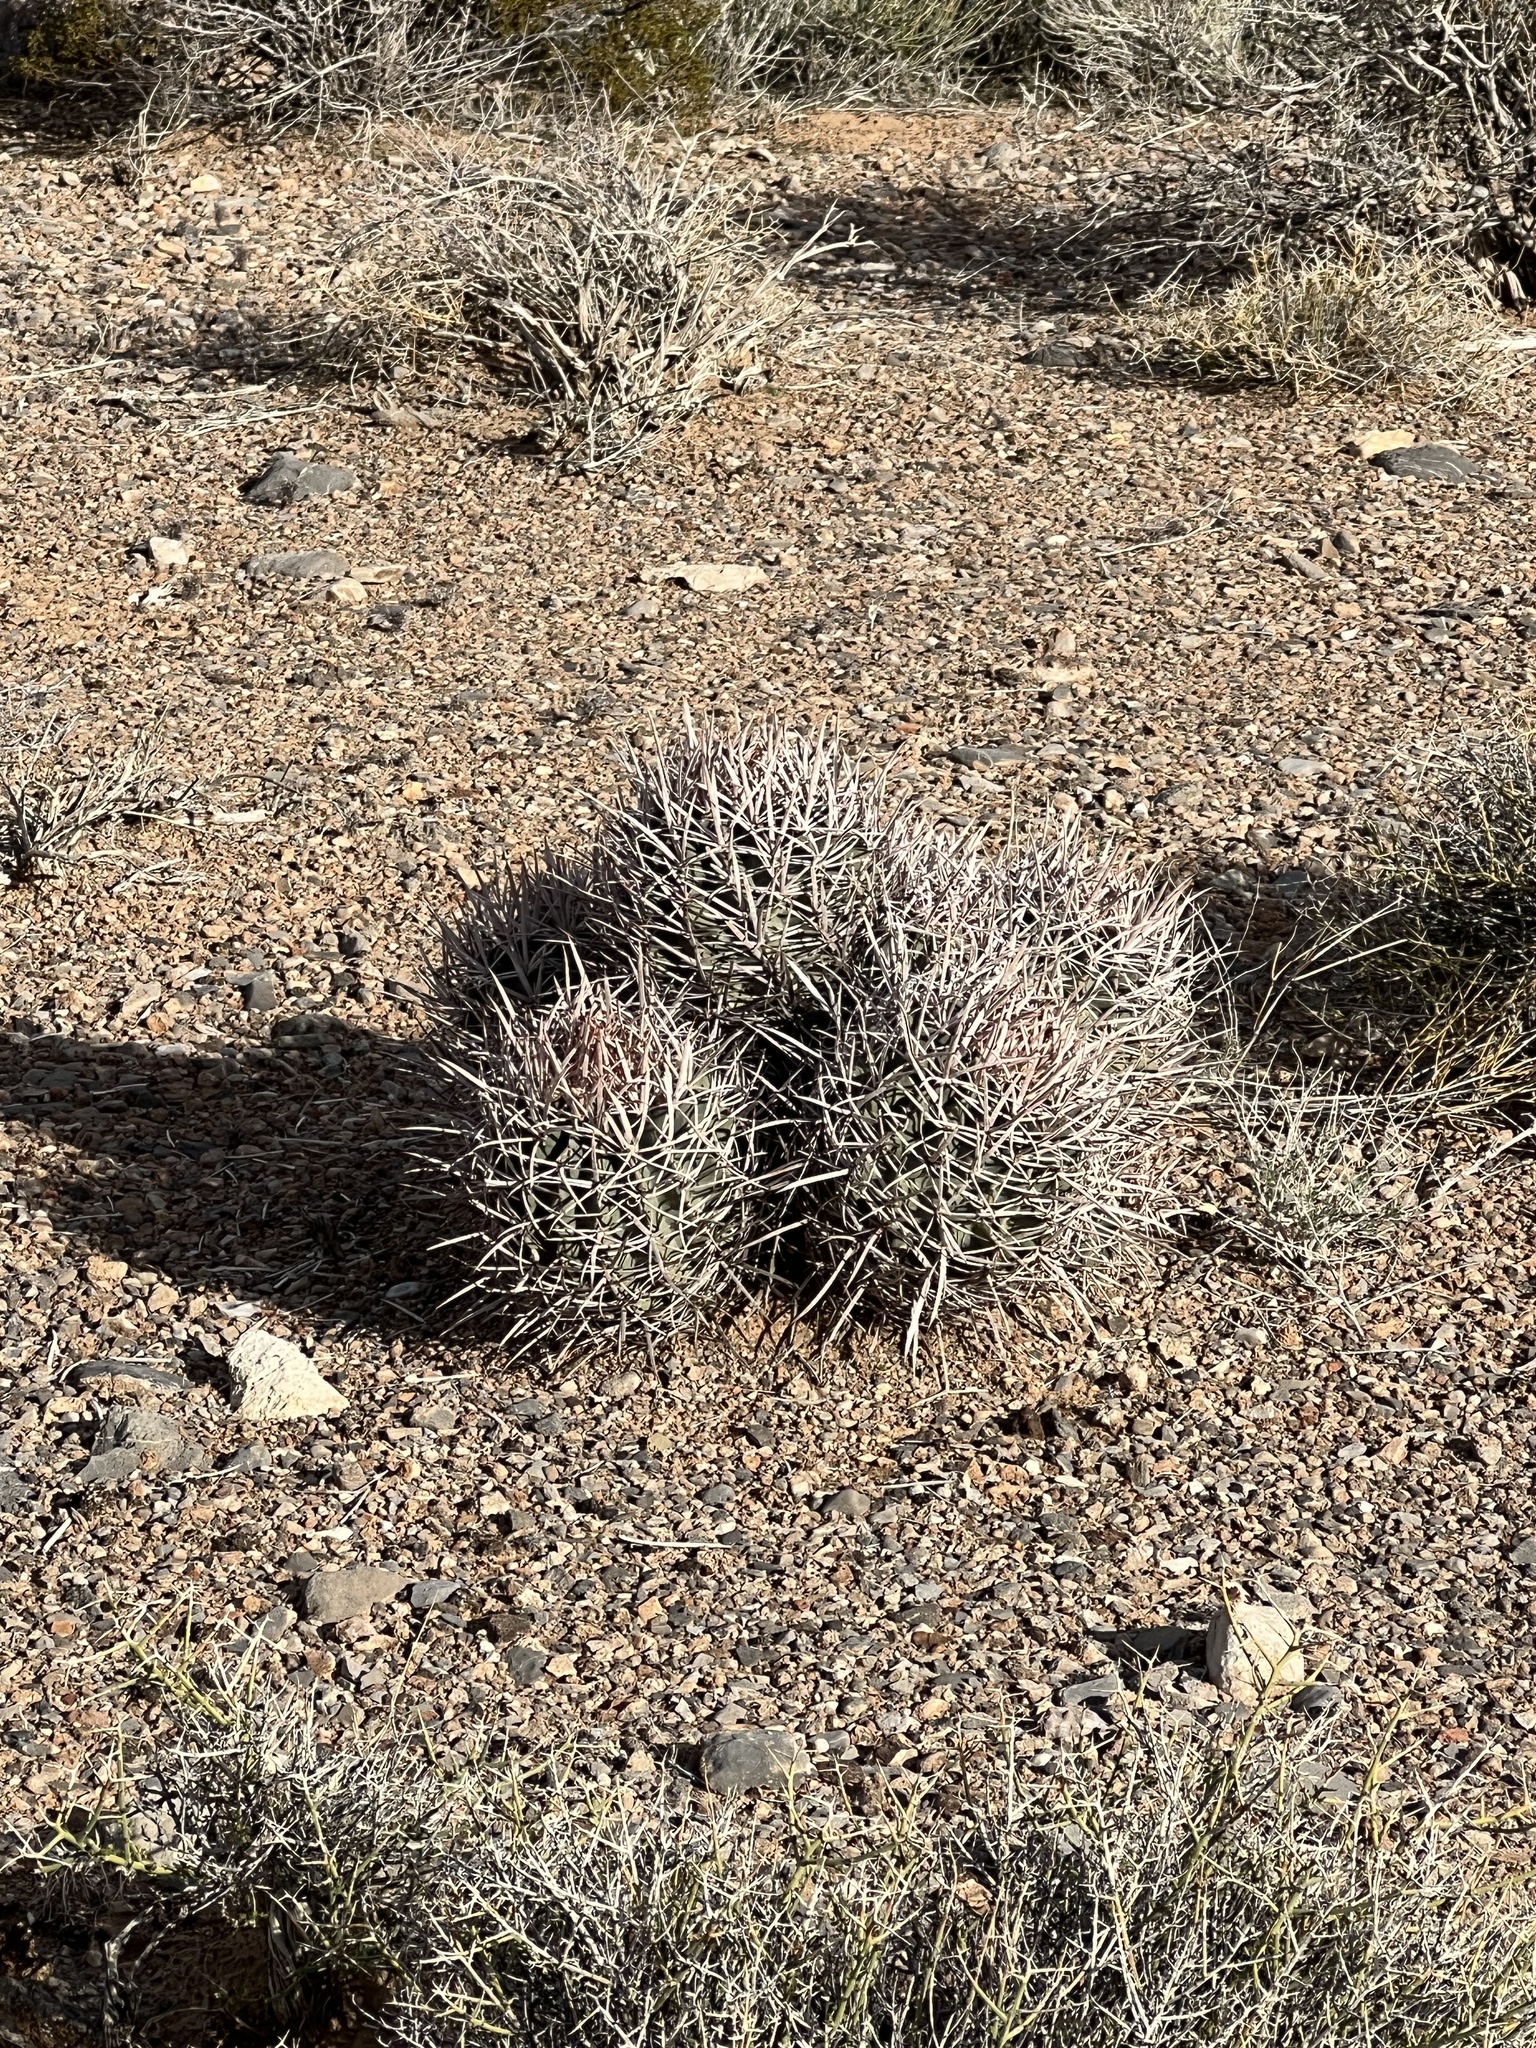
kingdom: Plantae
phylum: Tracheophyta
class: Magnoliopsida
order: Caryophyllales
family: Cactaceae
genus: Echinocactus
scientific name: Echinocactus polycephalus
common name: Cottontop cactus
